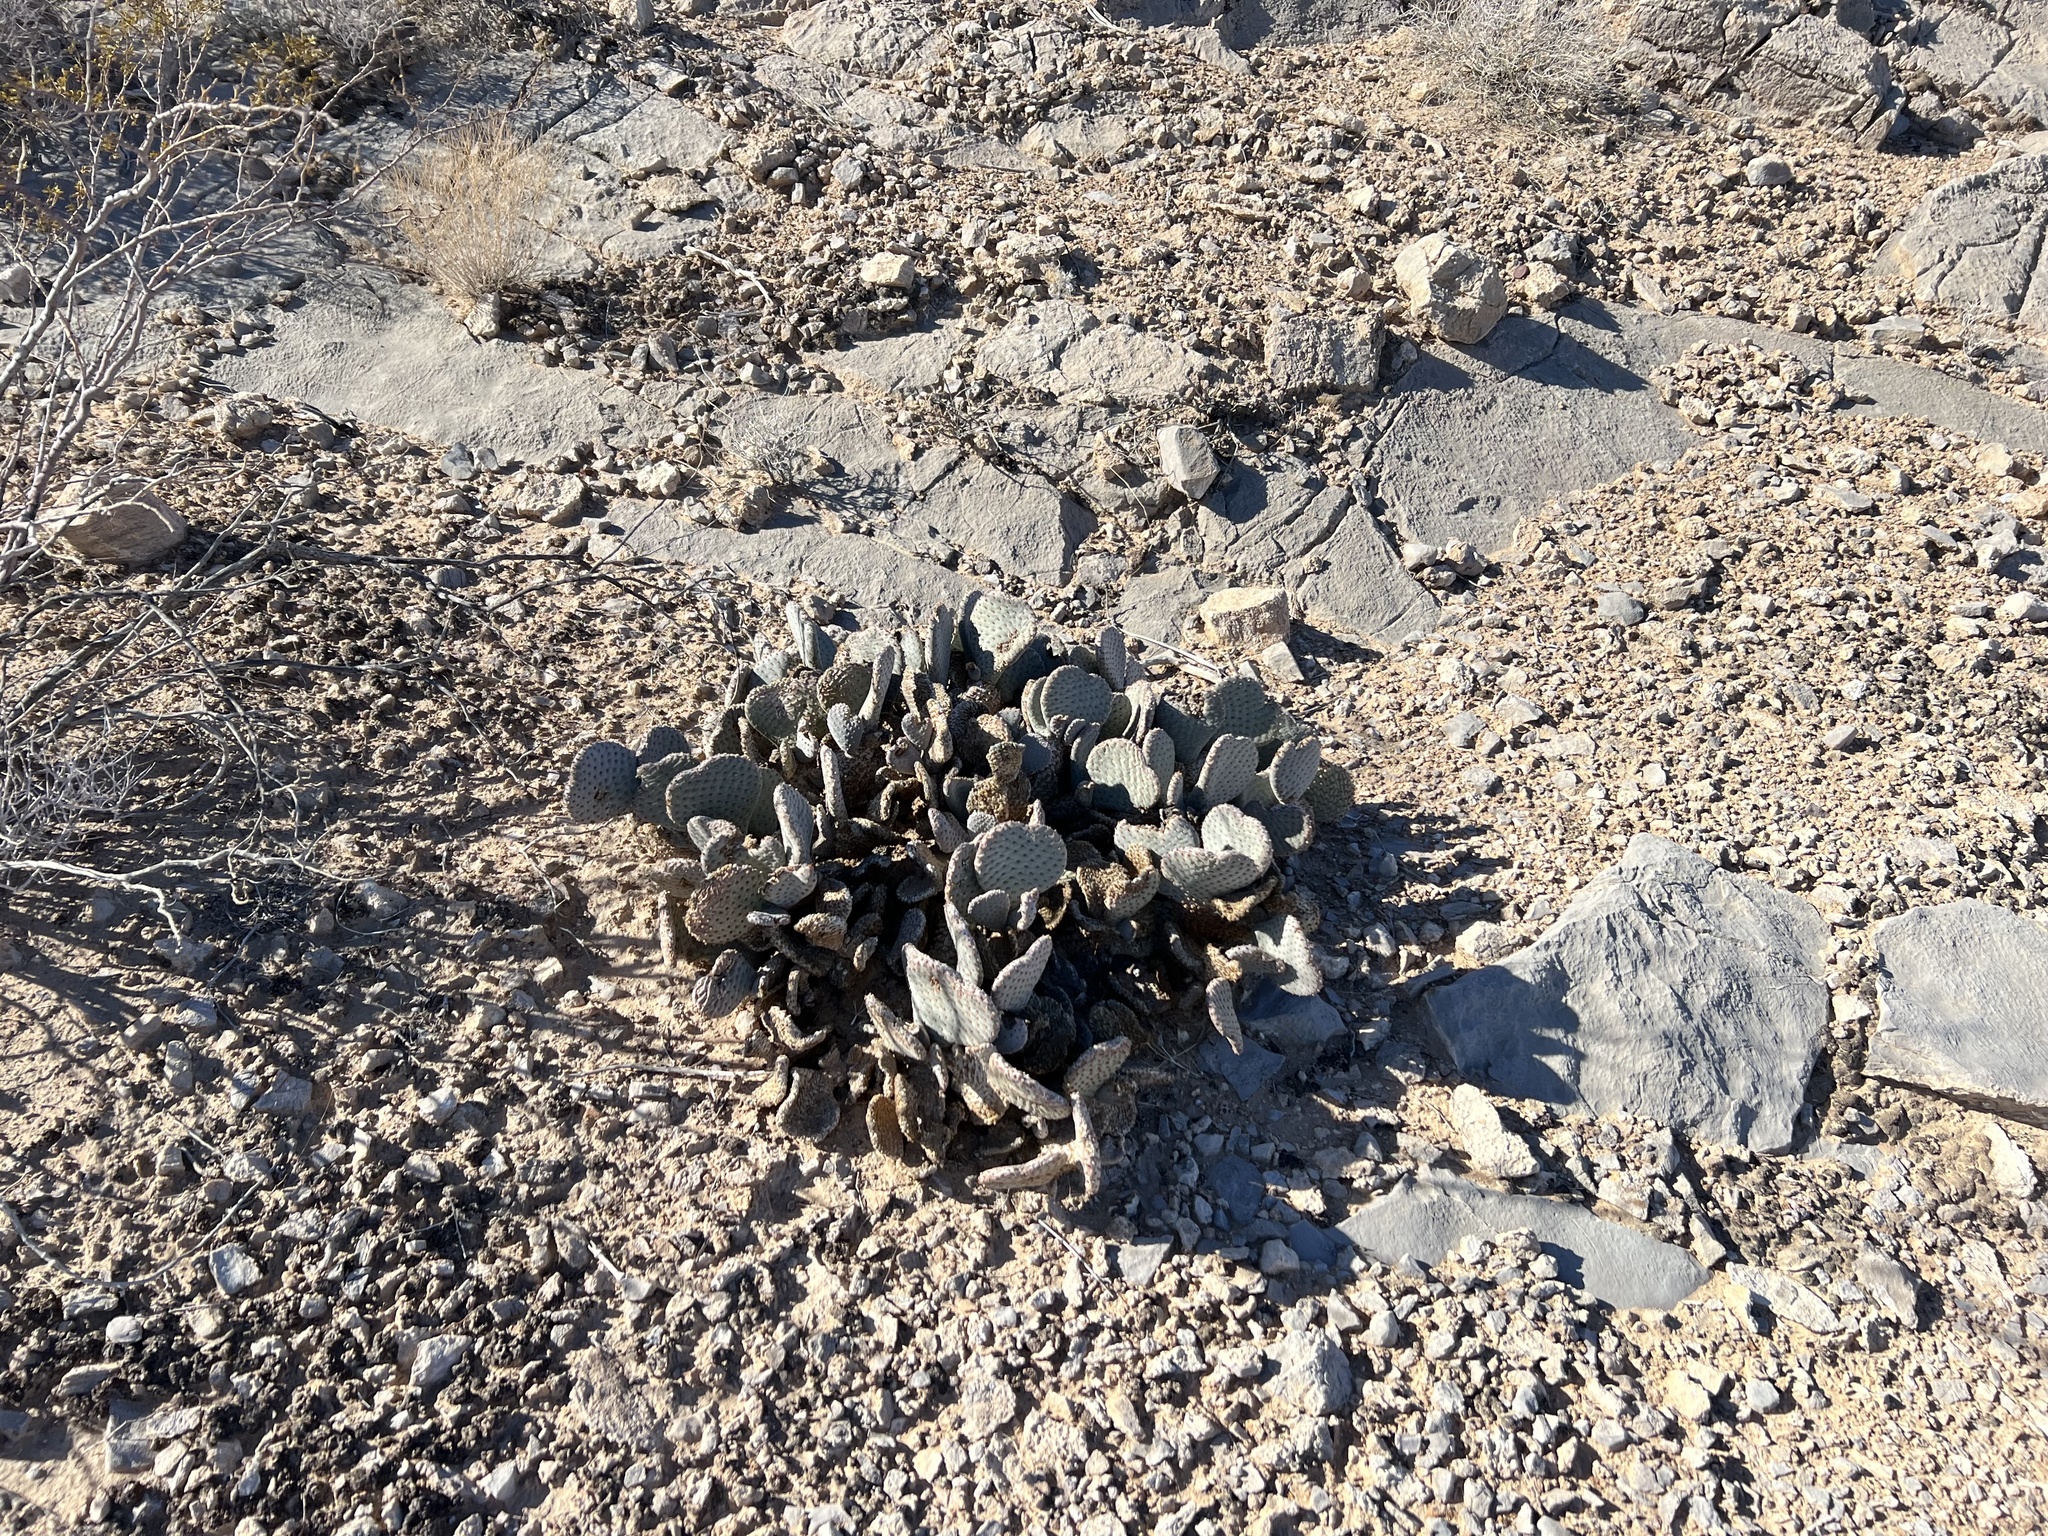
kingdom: Plantae
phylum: Tracheophyta
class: Magnoliopsida
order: Caryophyllales
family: Cactaceae
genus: Opuntia
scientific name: Opuntia basilaris
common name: Beavertail prickly-pear
